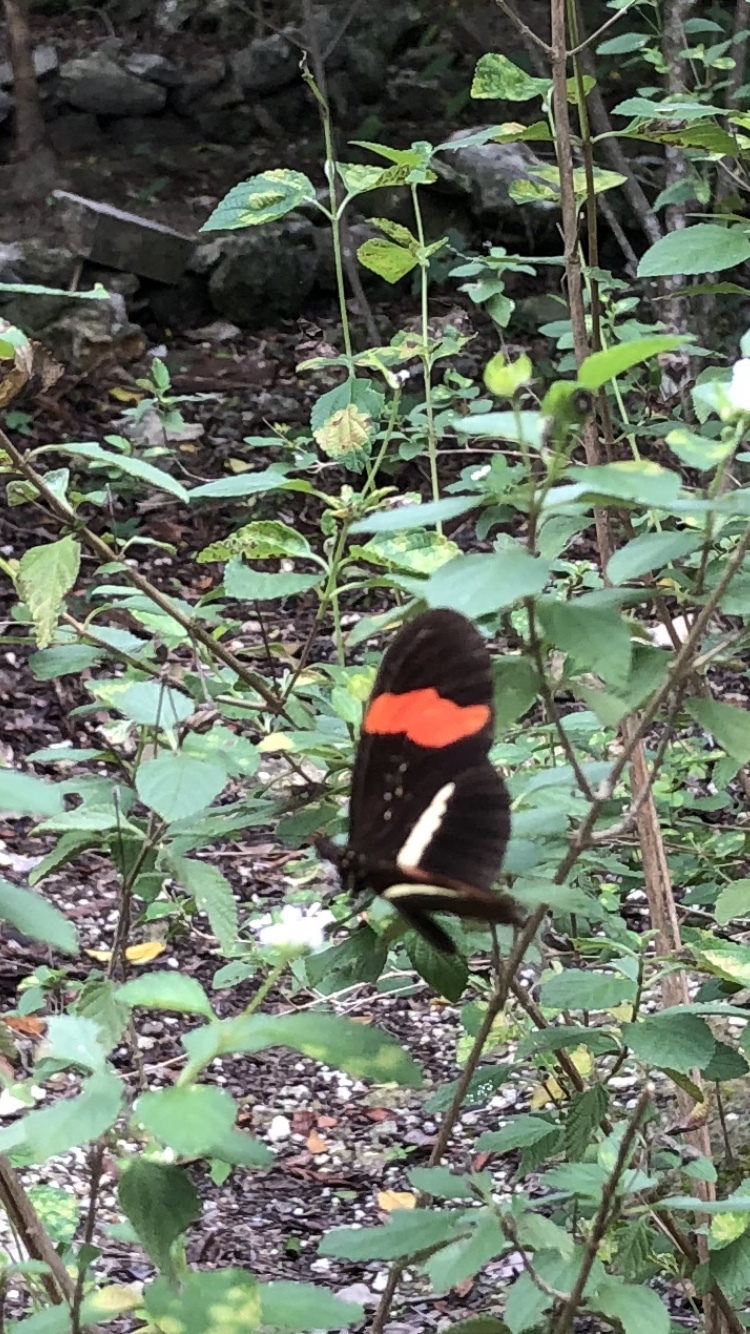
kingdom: Animalia
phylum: Arthropoda
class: Insecta
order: Lepidoptera
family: Nymphalidae
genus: Tirumala
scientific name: Tirumala petiverana
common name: Blue monarch
